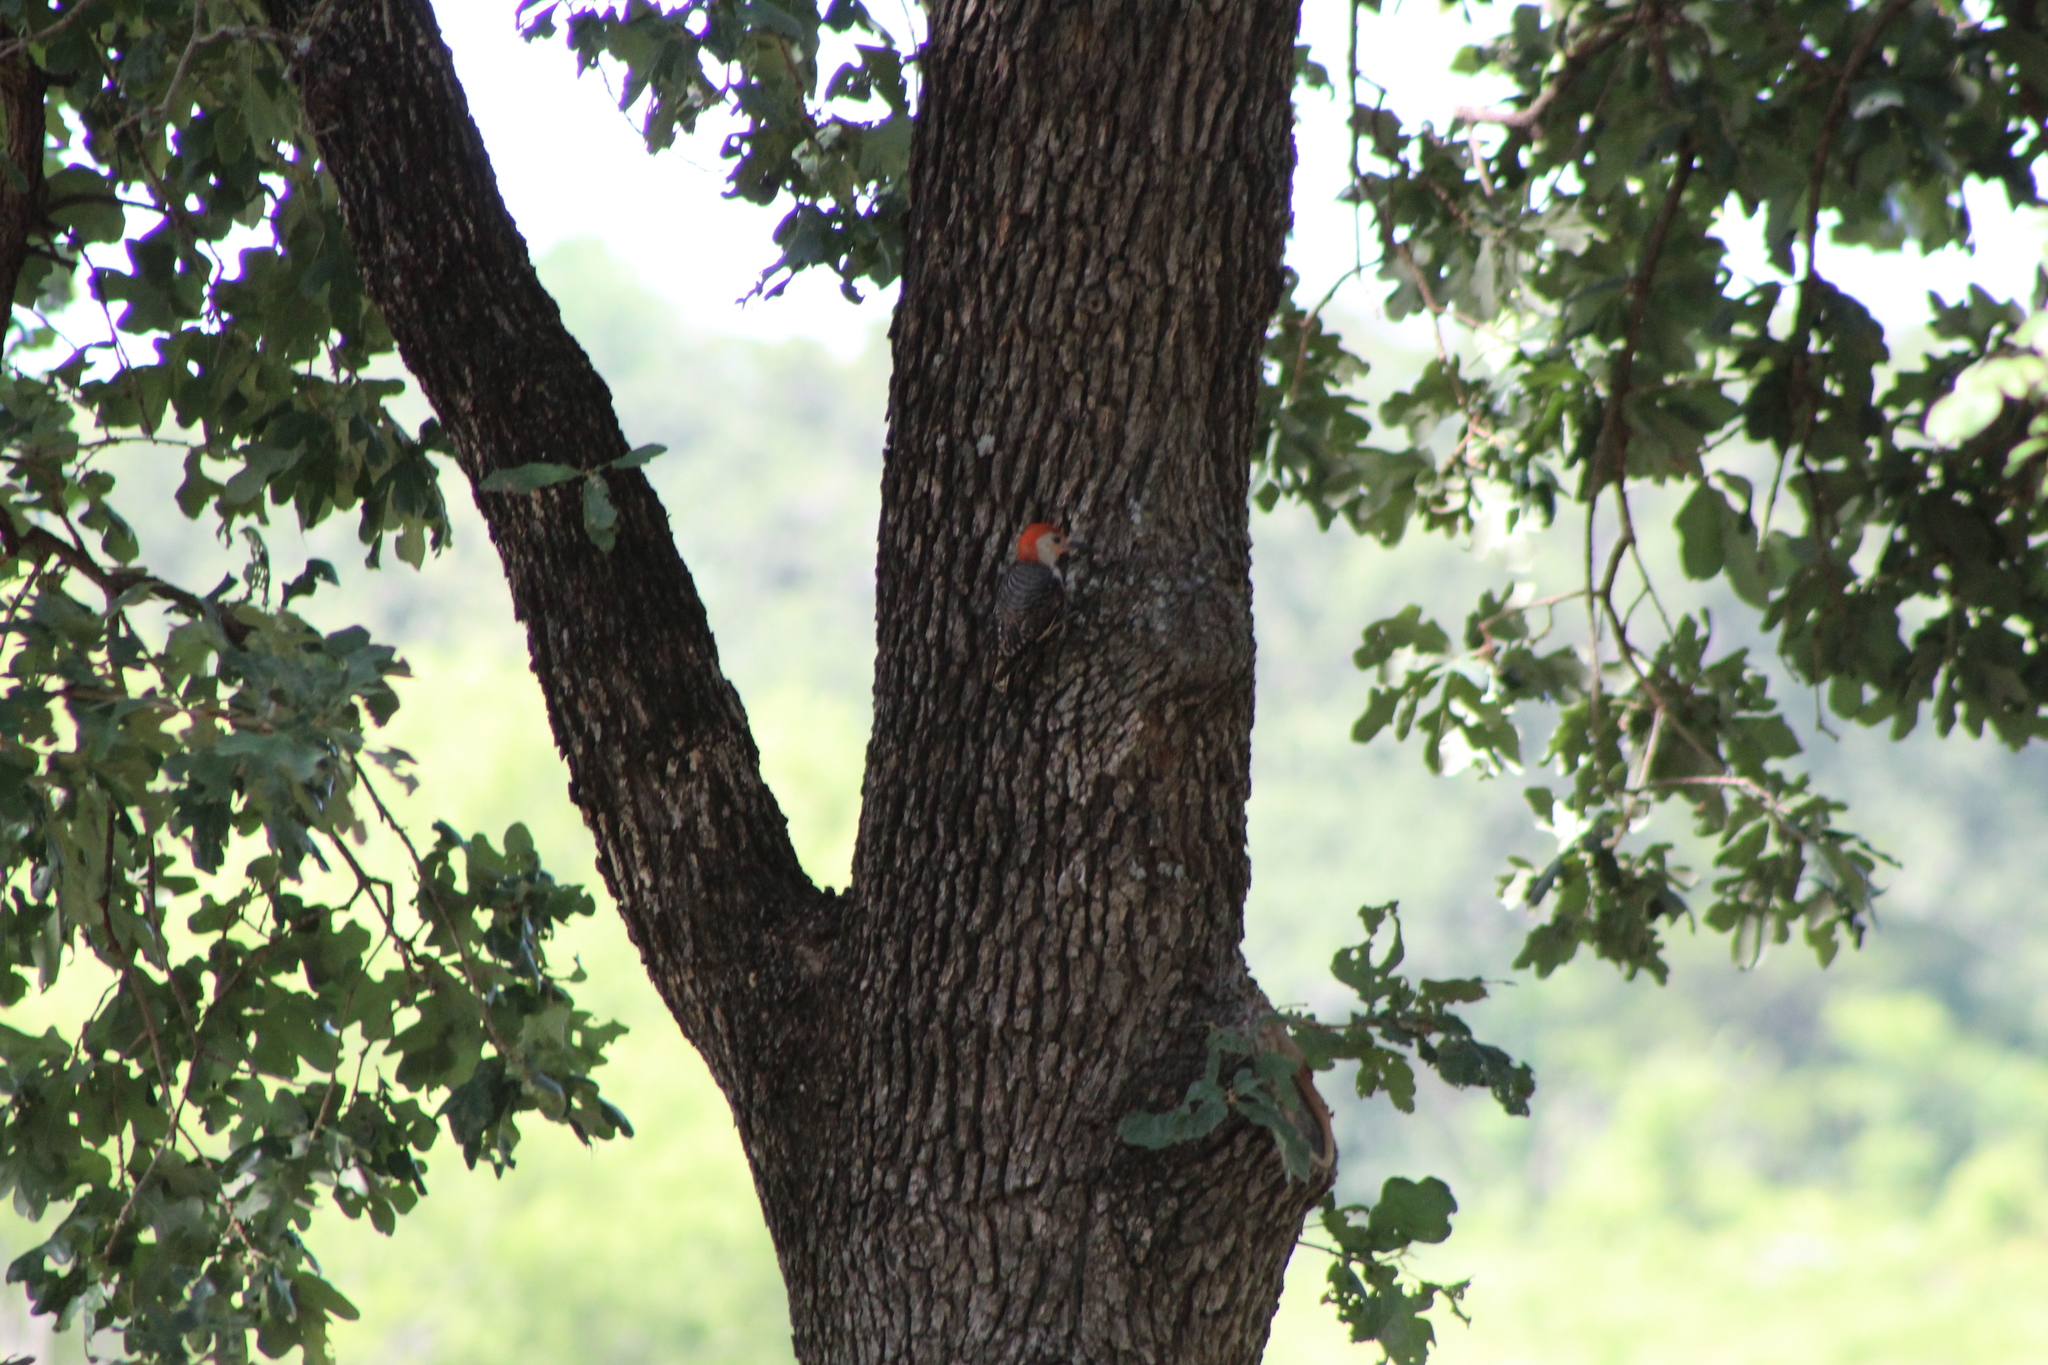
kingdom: Animalia
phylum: Chordata
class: Aves
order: Piciformes
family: Picidae
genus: Melanerpes
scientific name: Melanerpes carolinus
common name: Red-bellied woodpecker
